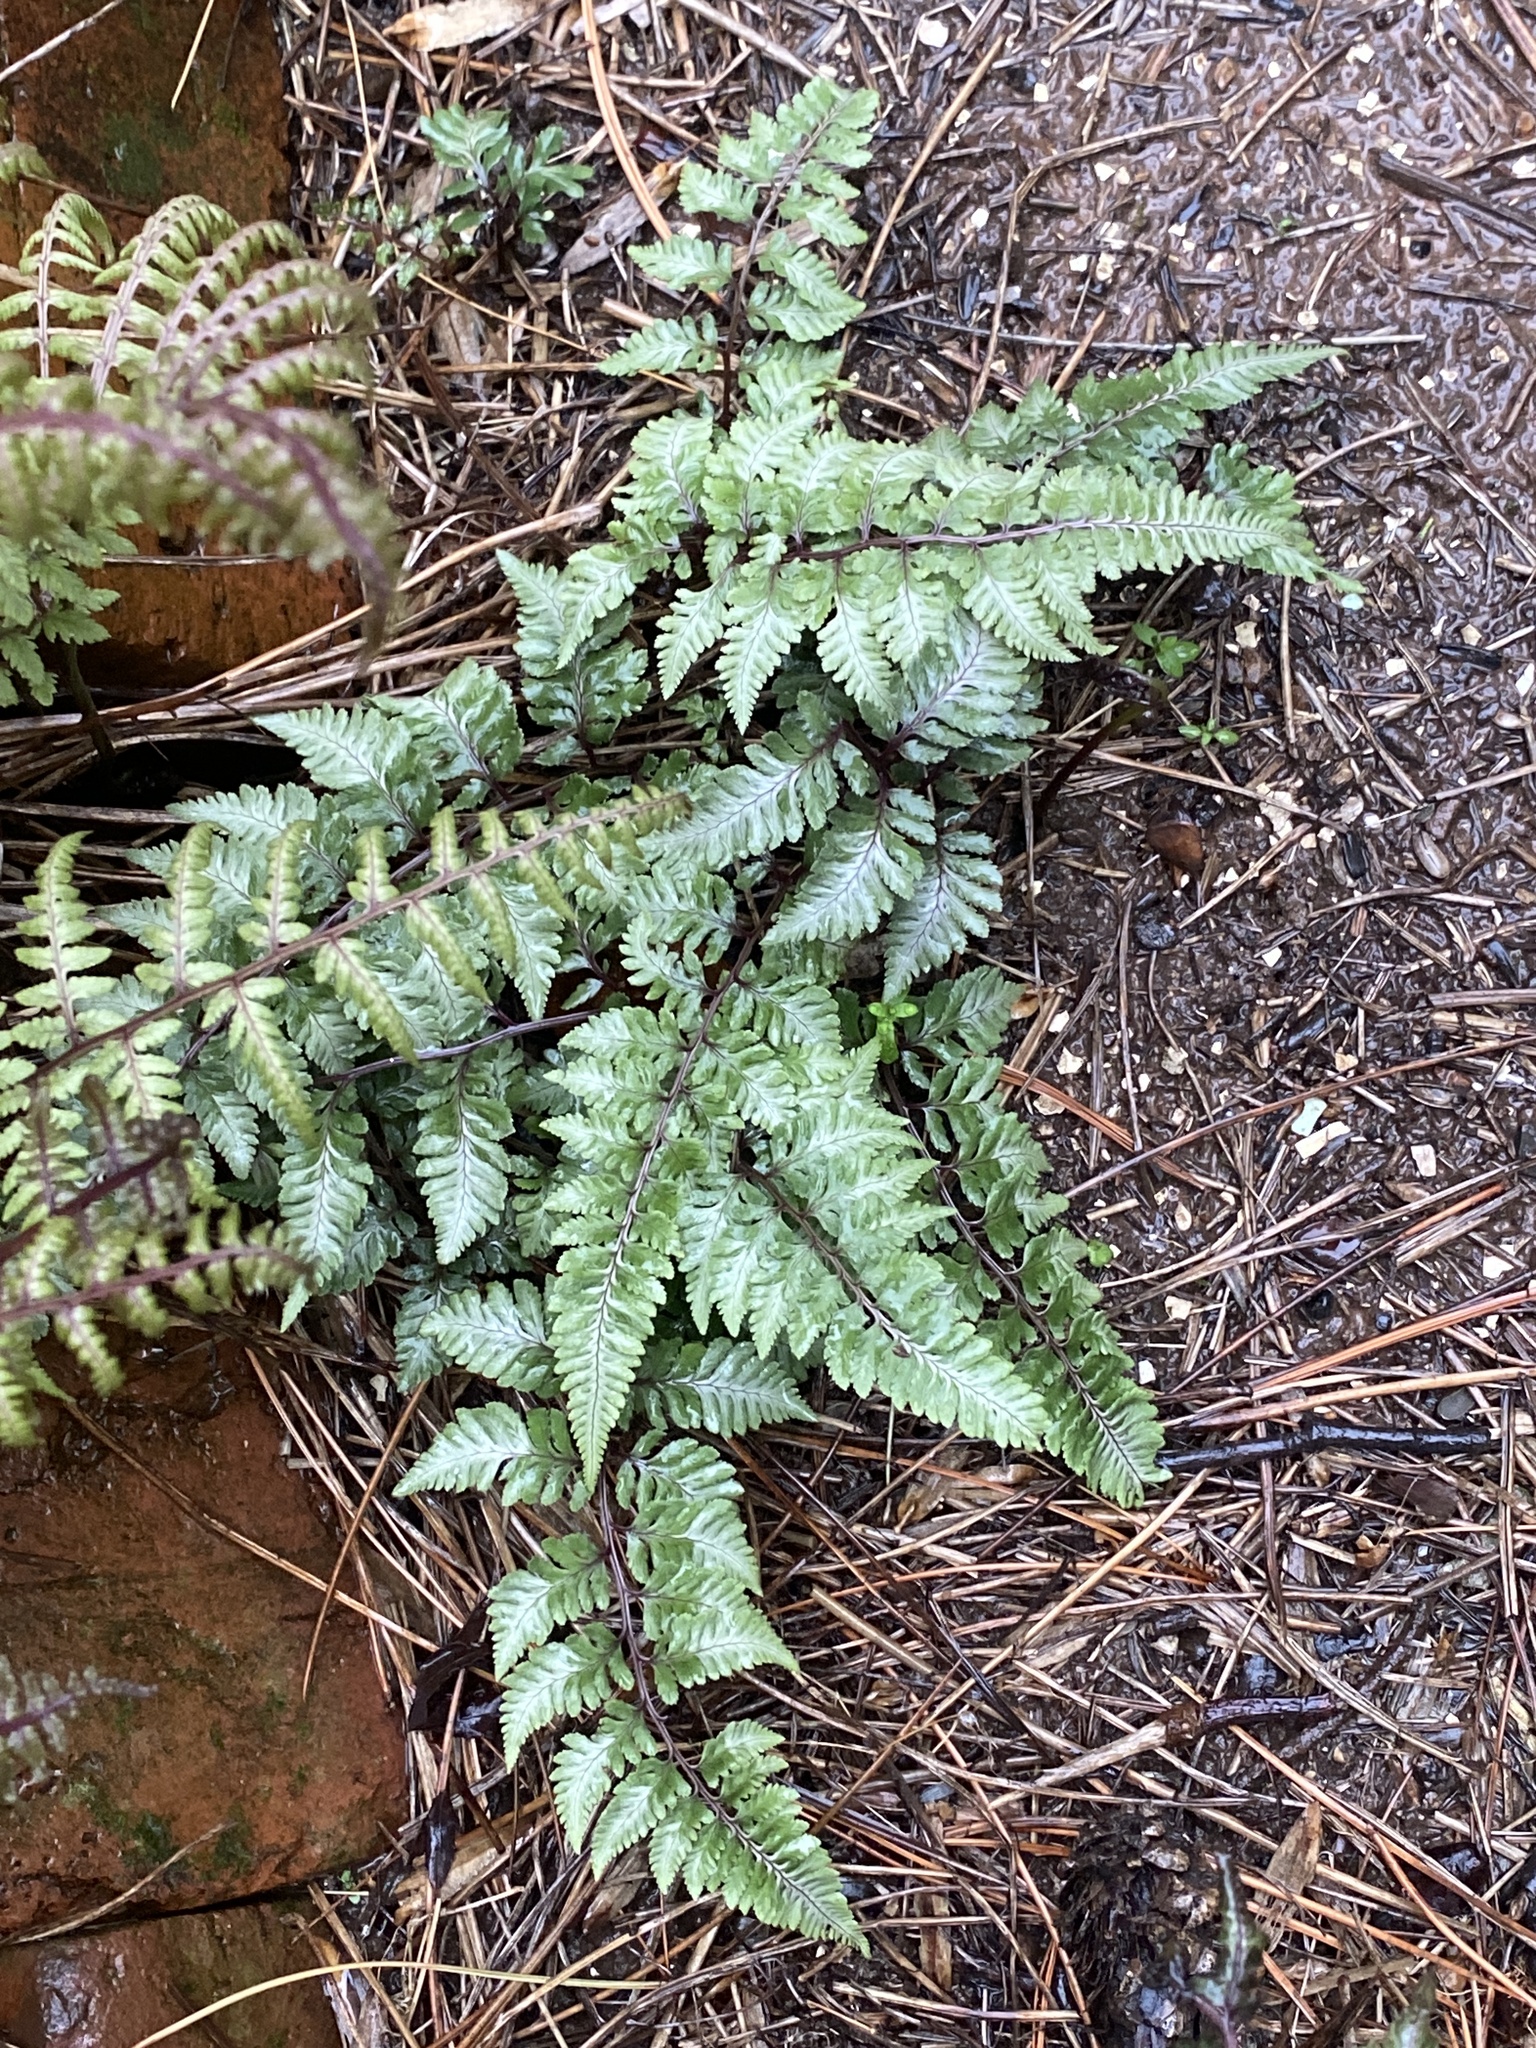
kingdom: Plantae
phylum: Tracheophyta
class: Polypodiopsida
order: Polypodiales
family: Athyriaceae
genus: Anisocampium
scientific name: Anisocampium niponicum
